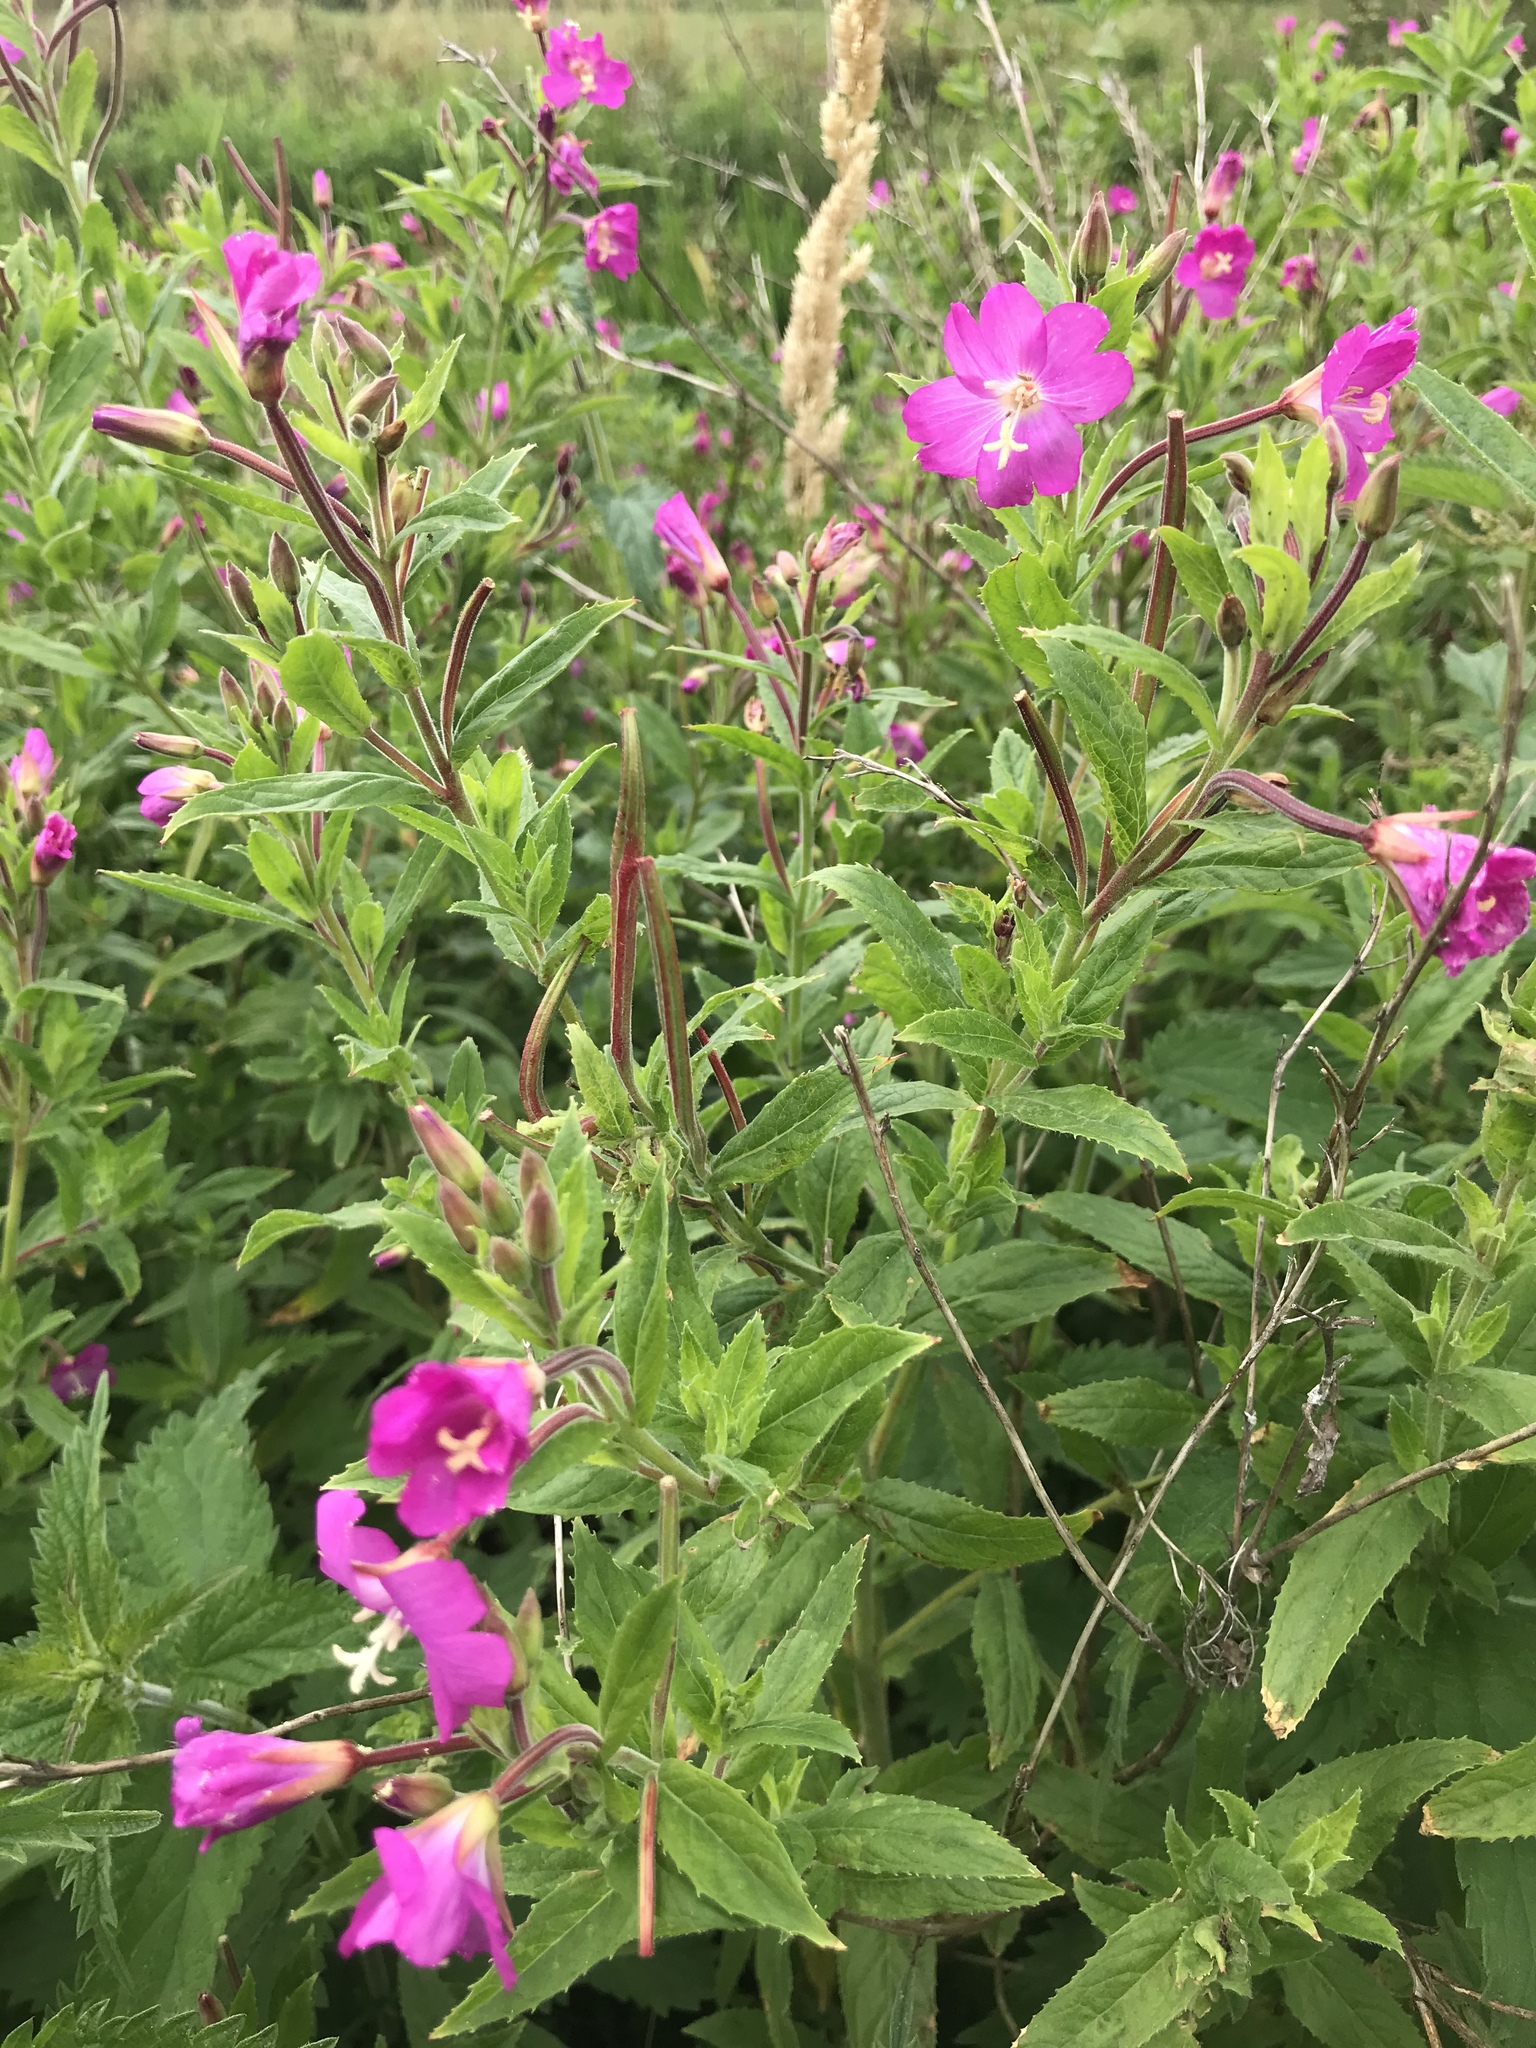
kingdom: Plantae
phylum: Tracheophyta
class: Magnoliopsida
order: Myrtales
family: Onagraceae
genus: Epilobium
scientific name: Epilobium hirsutum
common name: Great willowherb
